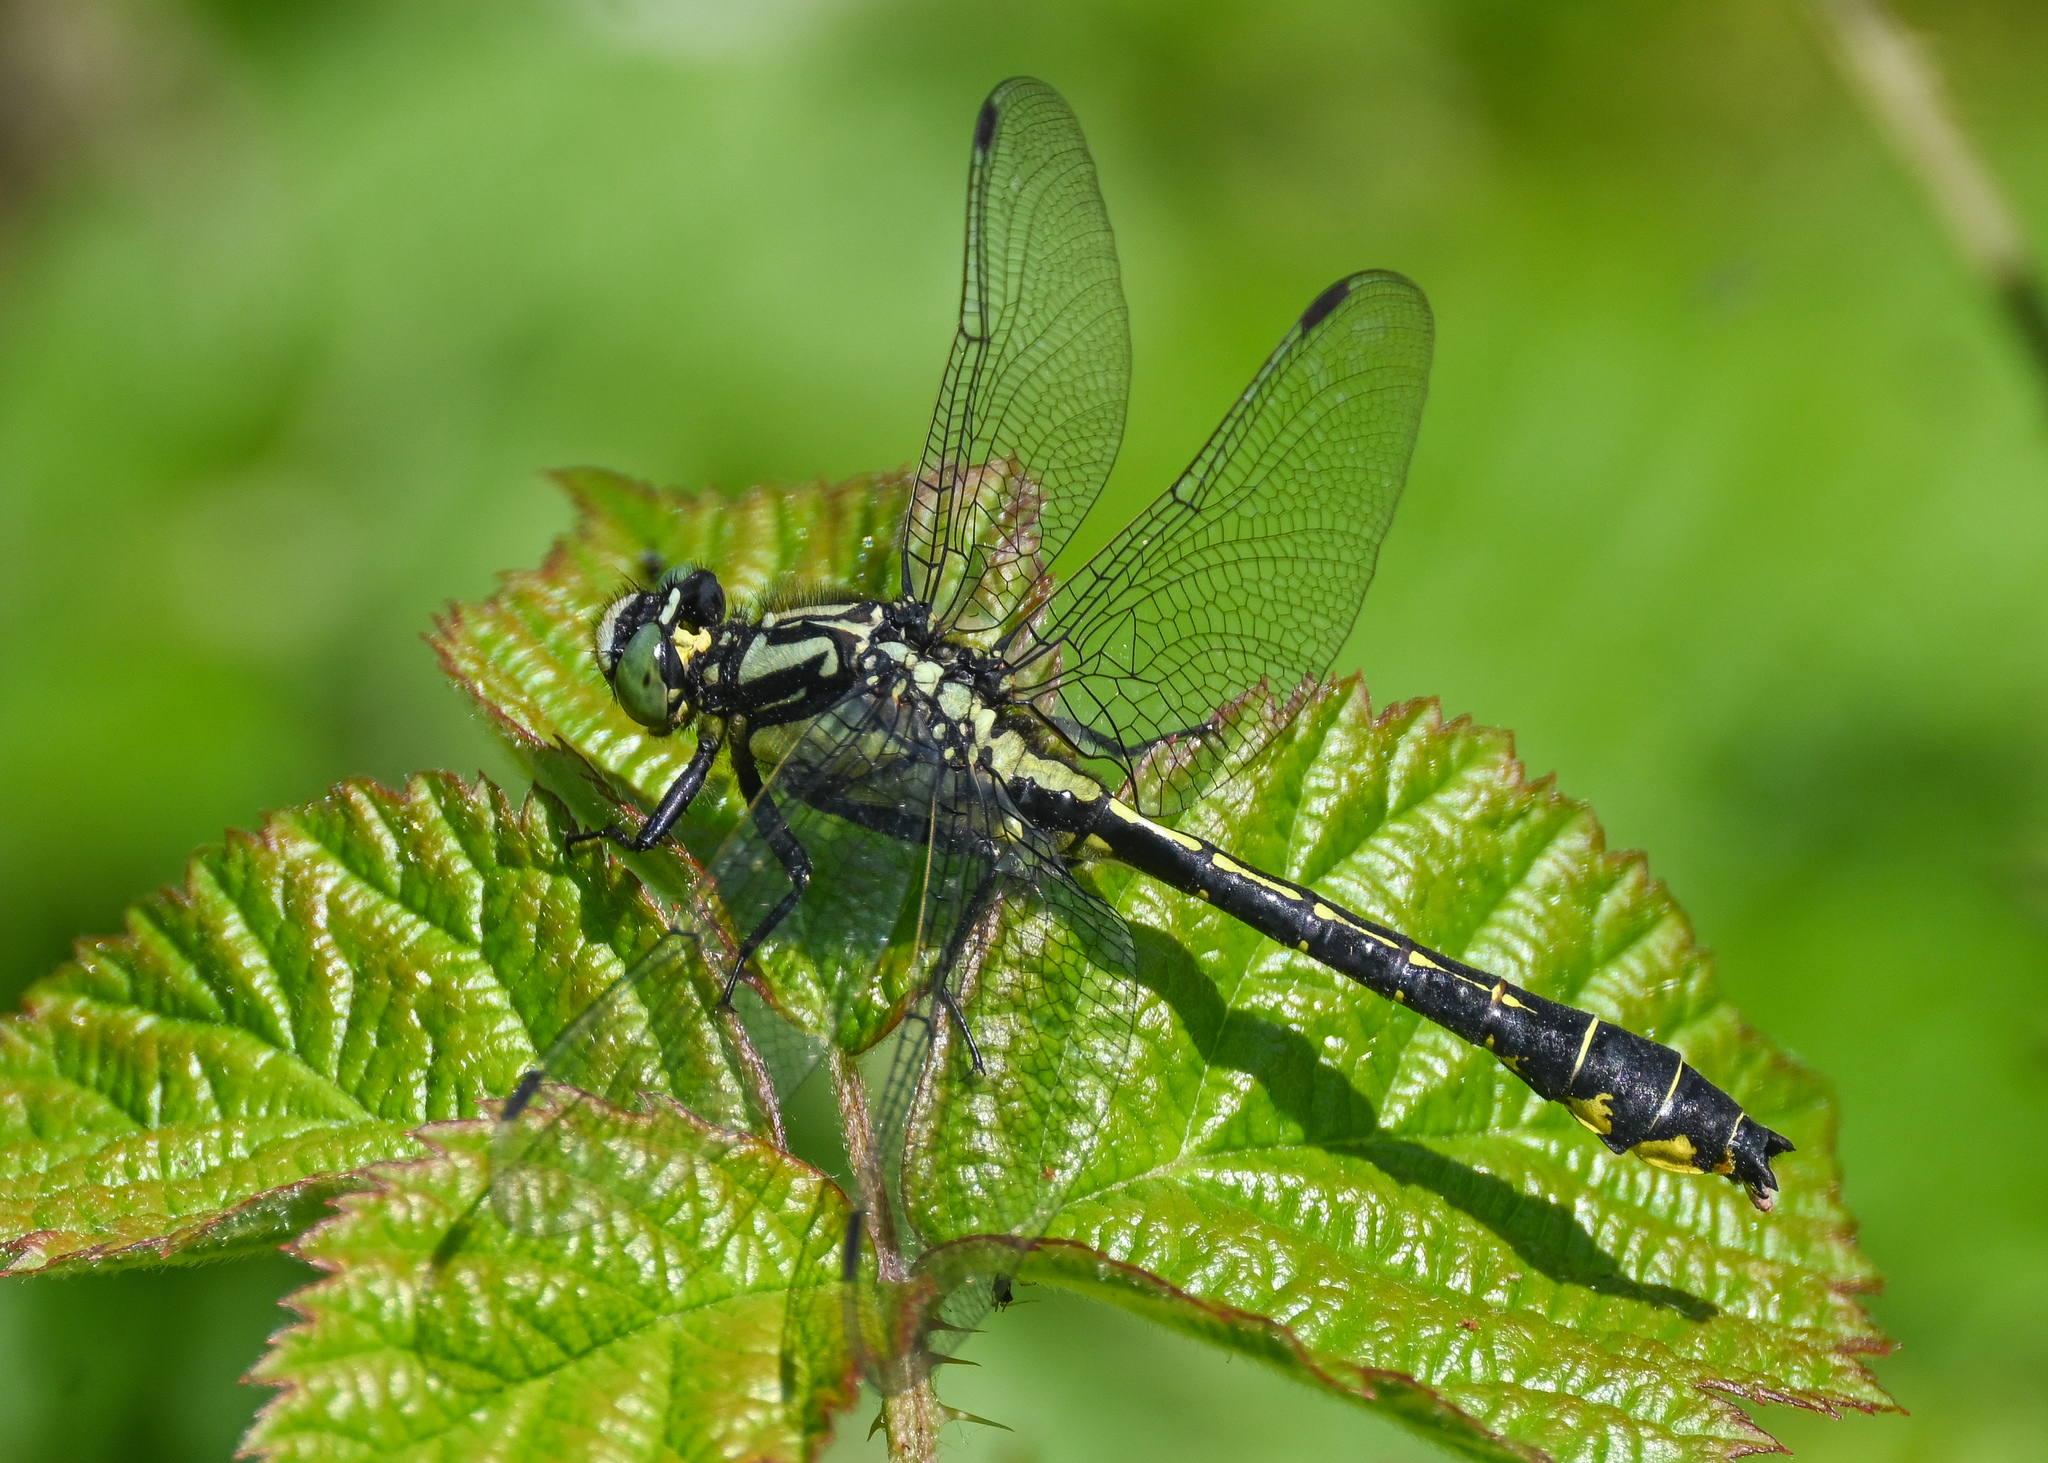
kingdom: Animalia
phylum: Arthropoda
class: Insecta
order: Odonata
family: Gomphidae
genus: Gomphus
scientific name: Gomphus vulgatissimus
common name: Club-tailed dragonfly
